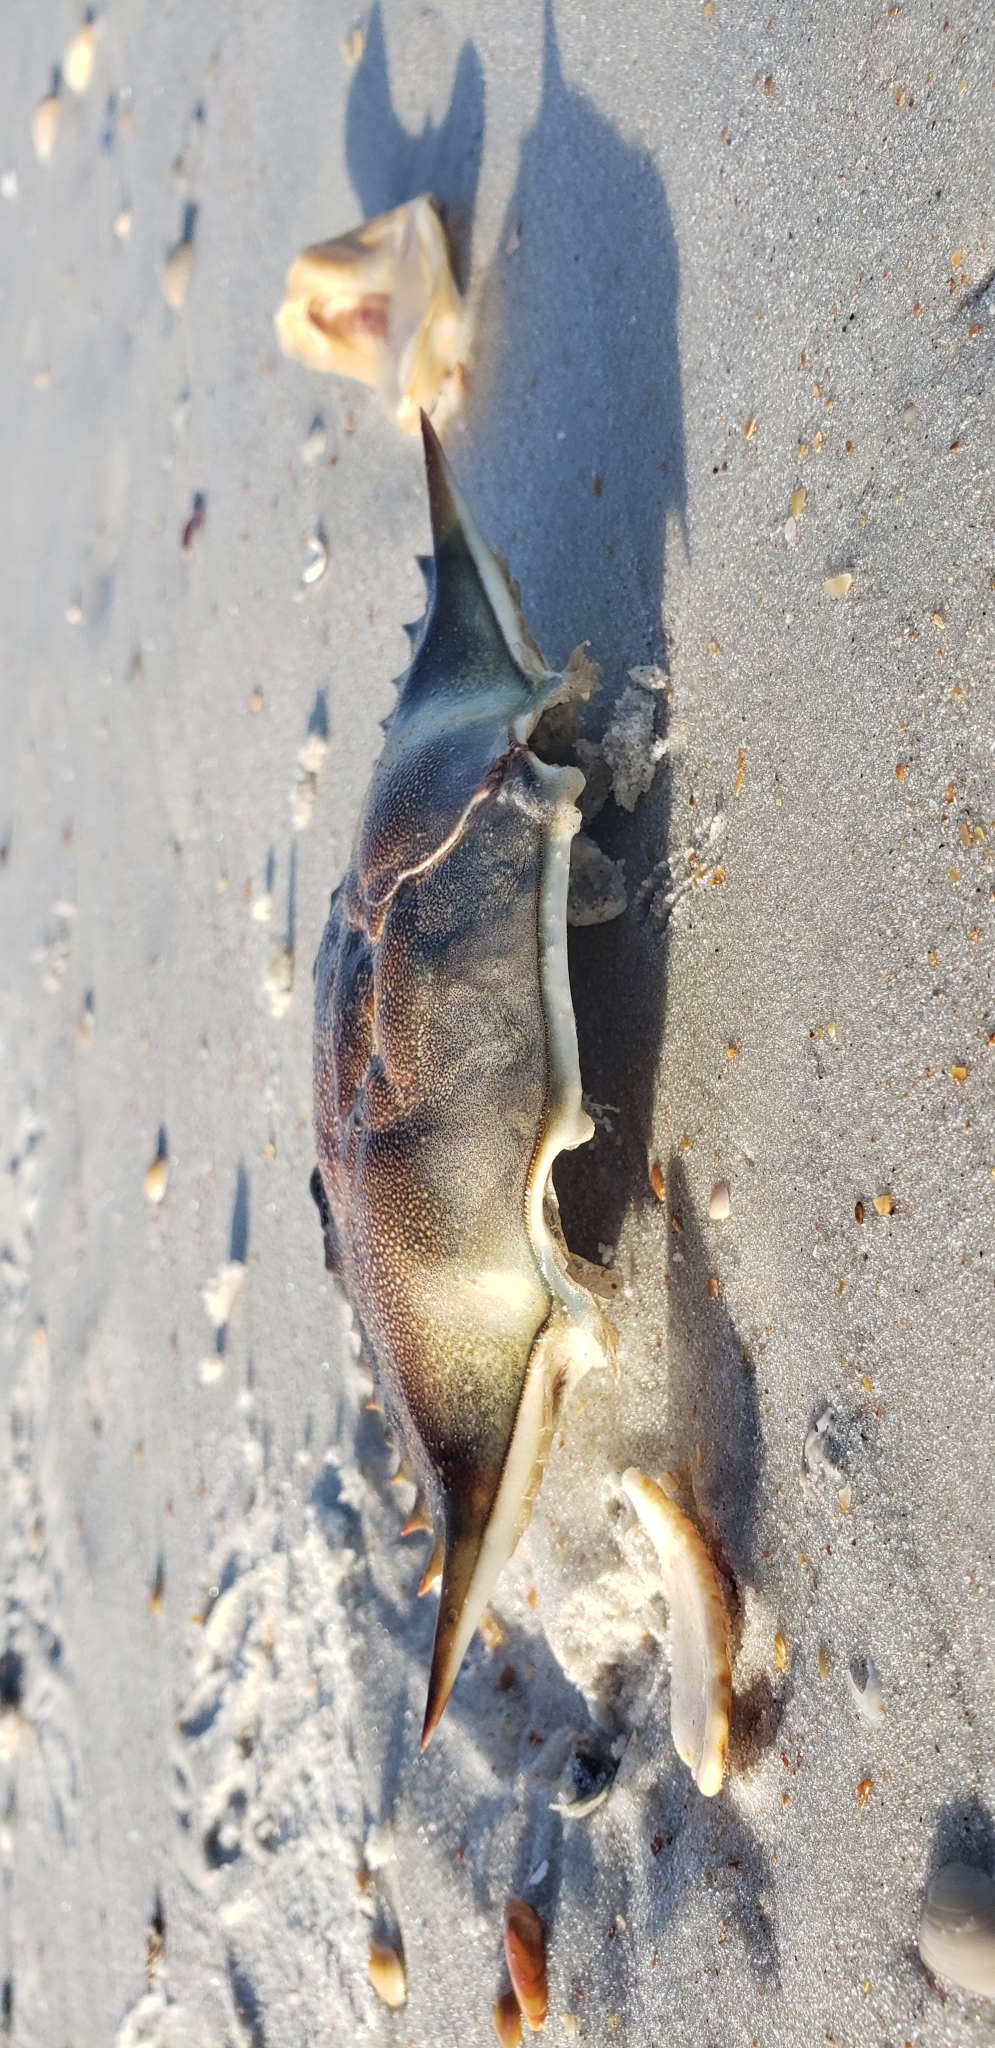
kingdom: Animalia
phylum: Arthropoda
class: Malacostraca
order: Decapoda
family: Portunidae
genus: Callinectes
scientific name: Callinectes sapidus
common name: Blue crab
